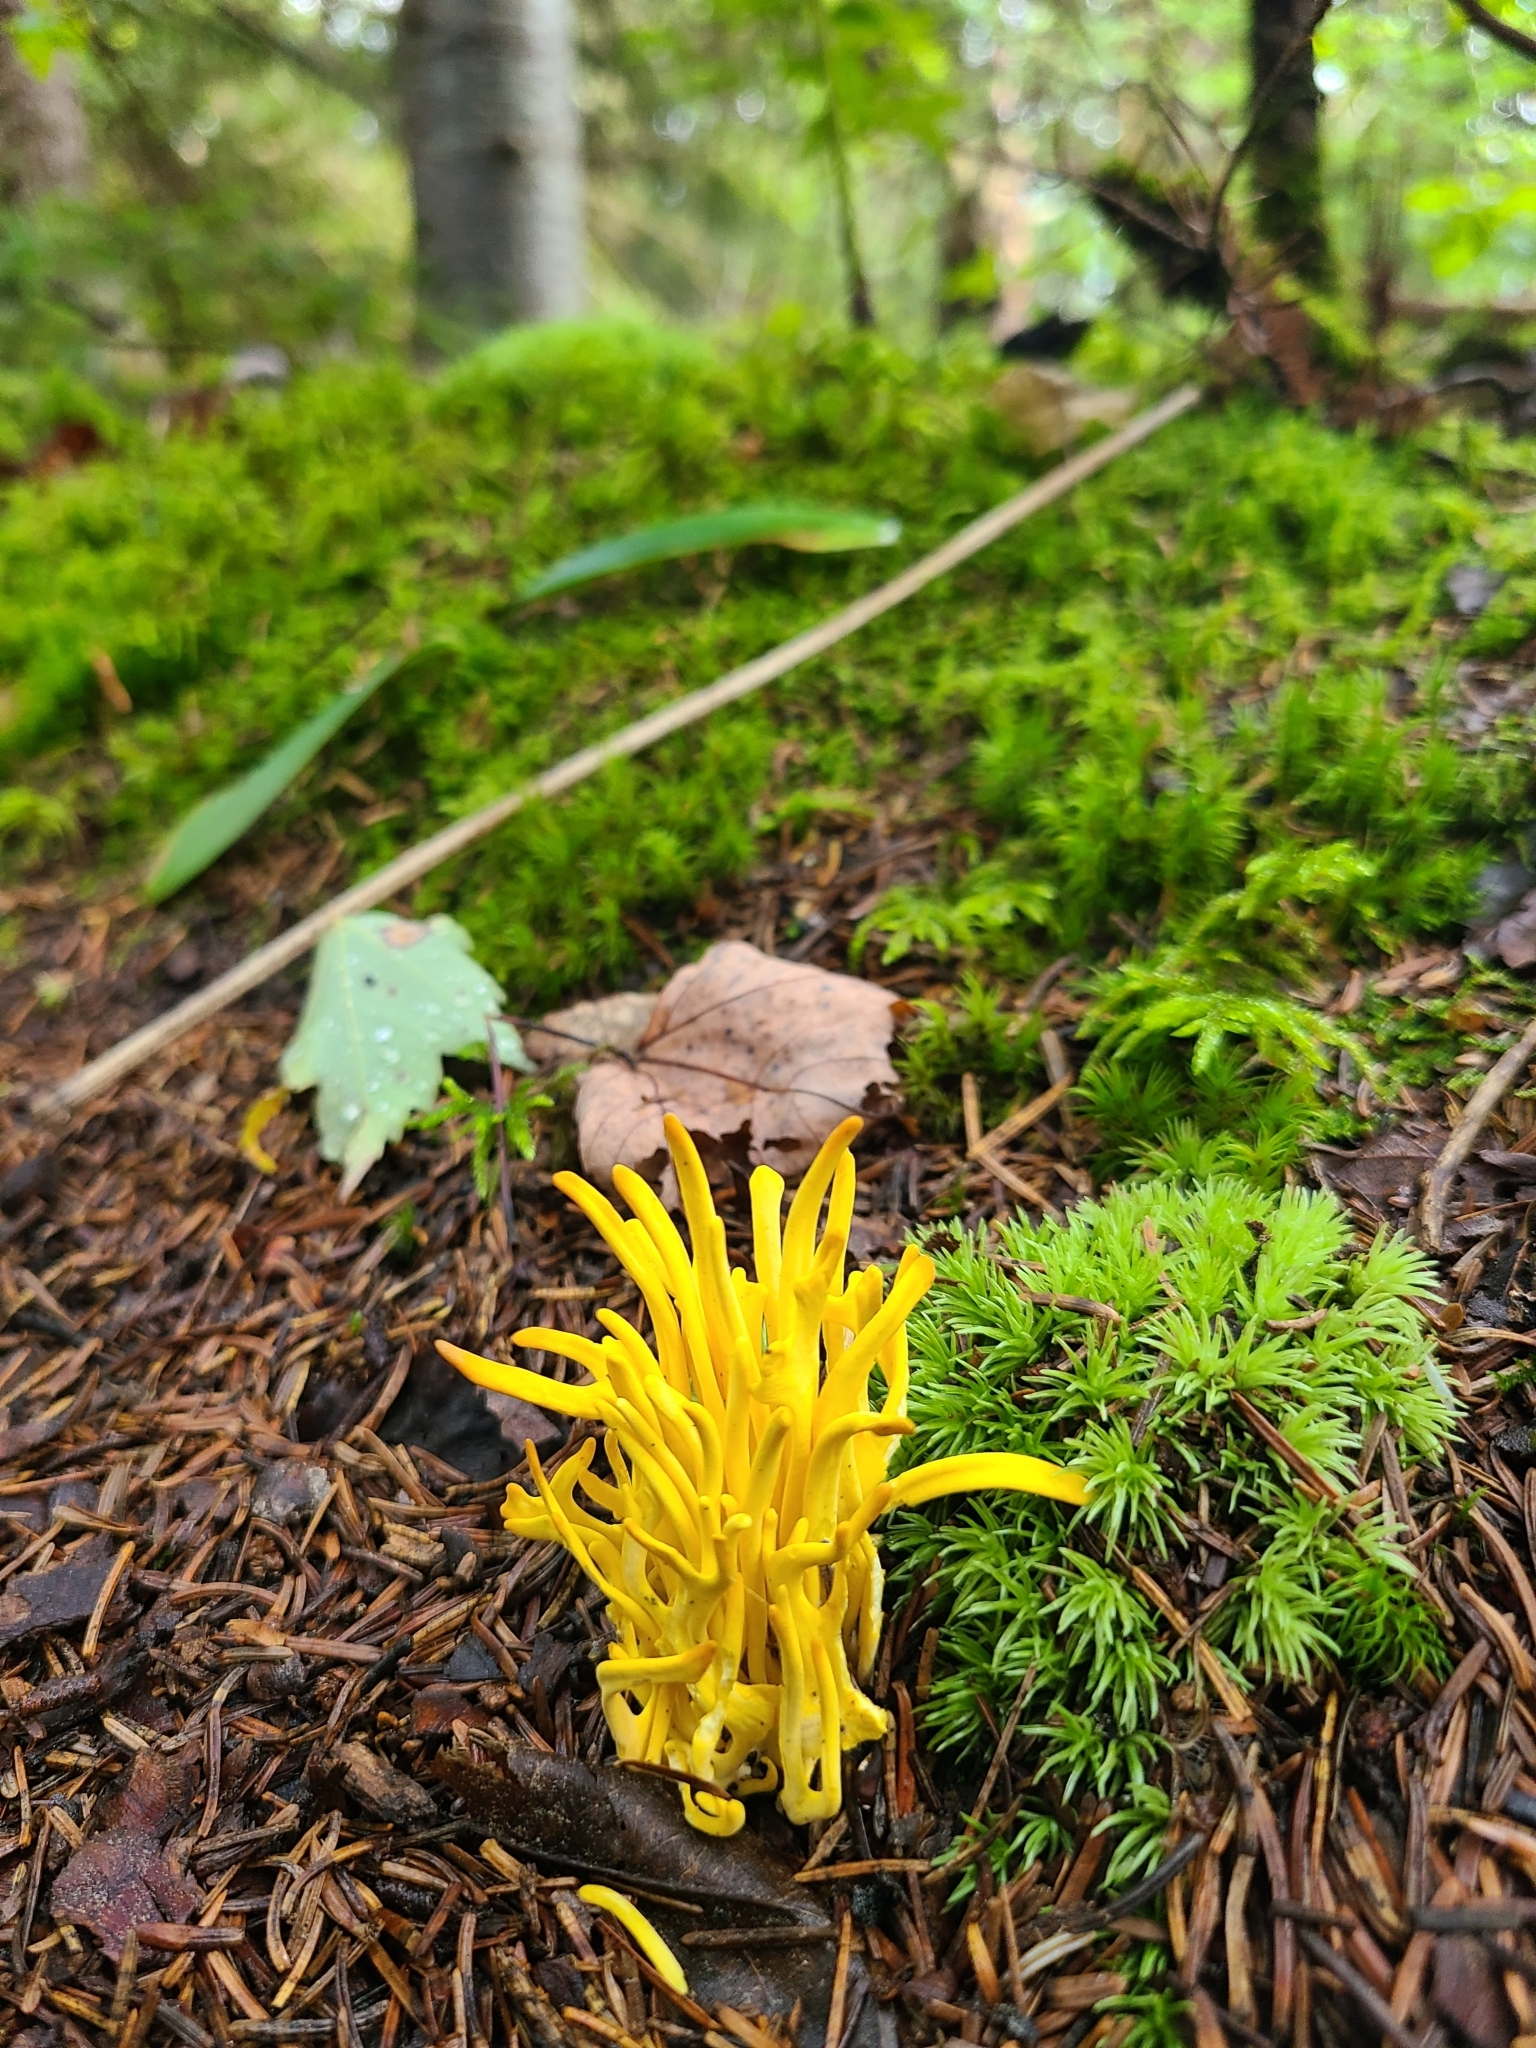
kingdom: Fungi
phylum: Basidiomycota
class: Agaricomycetes
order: Agaricales
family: Clavariaceae
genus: Clavulinopsis
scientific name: Clavulinopsis fusiformis
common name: Golden spindles
